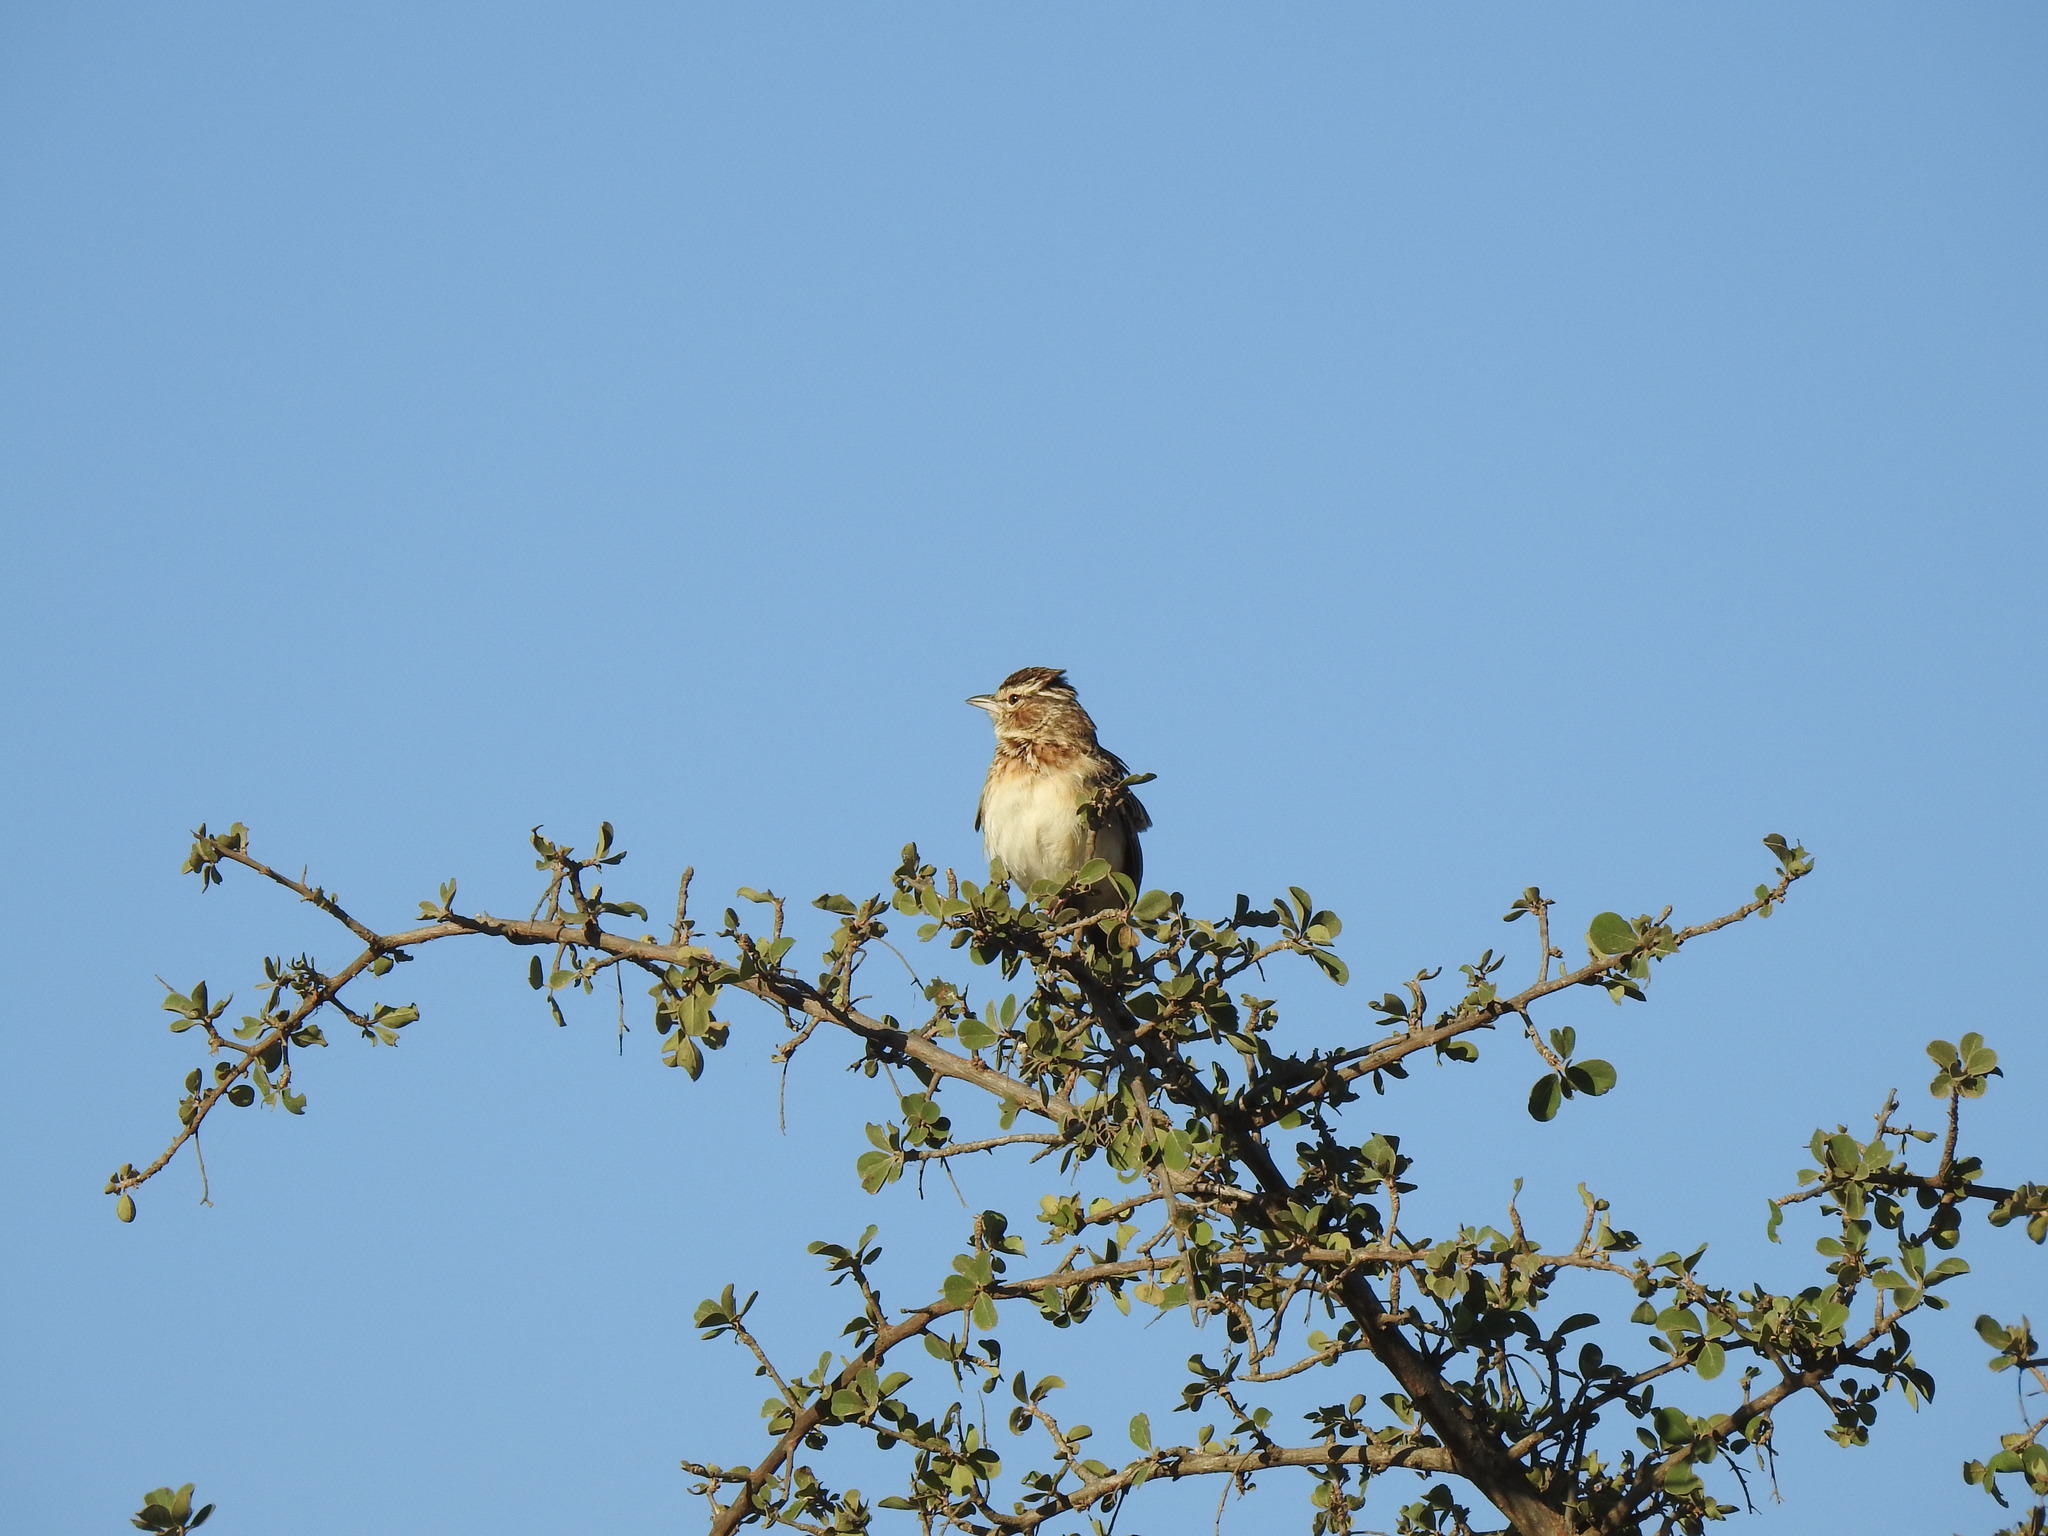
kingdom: Animalia
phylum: Chordata
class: Aves
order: Passeriformes
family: Alaudidae
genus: Calendulauda
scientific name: Calendulauda sabota
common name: Sabota lark
